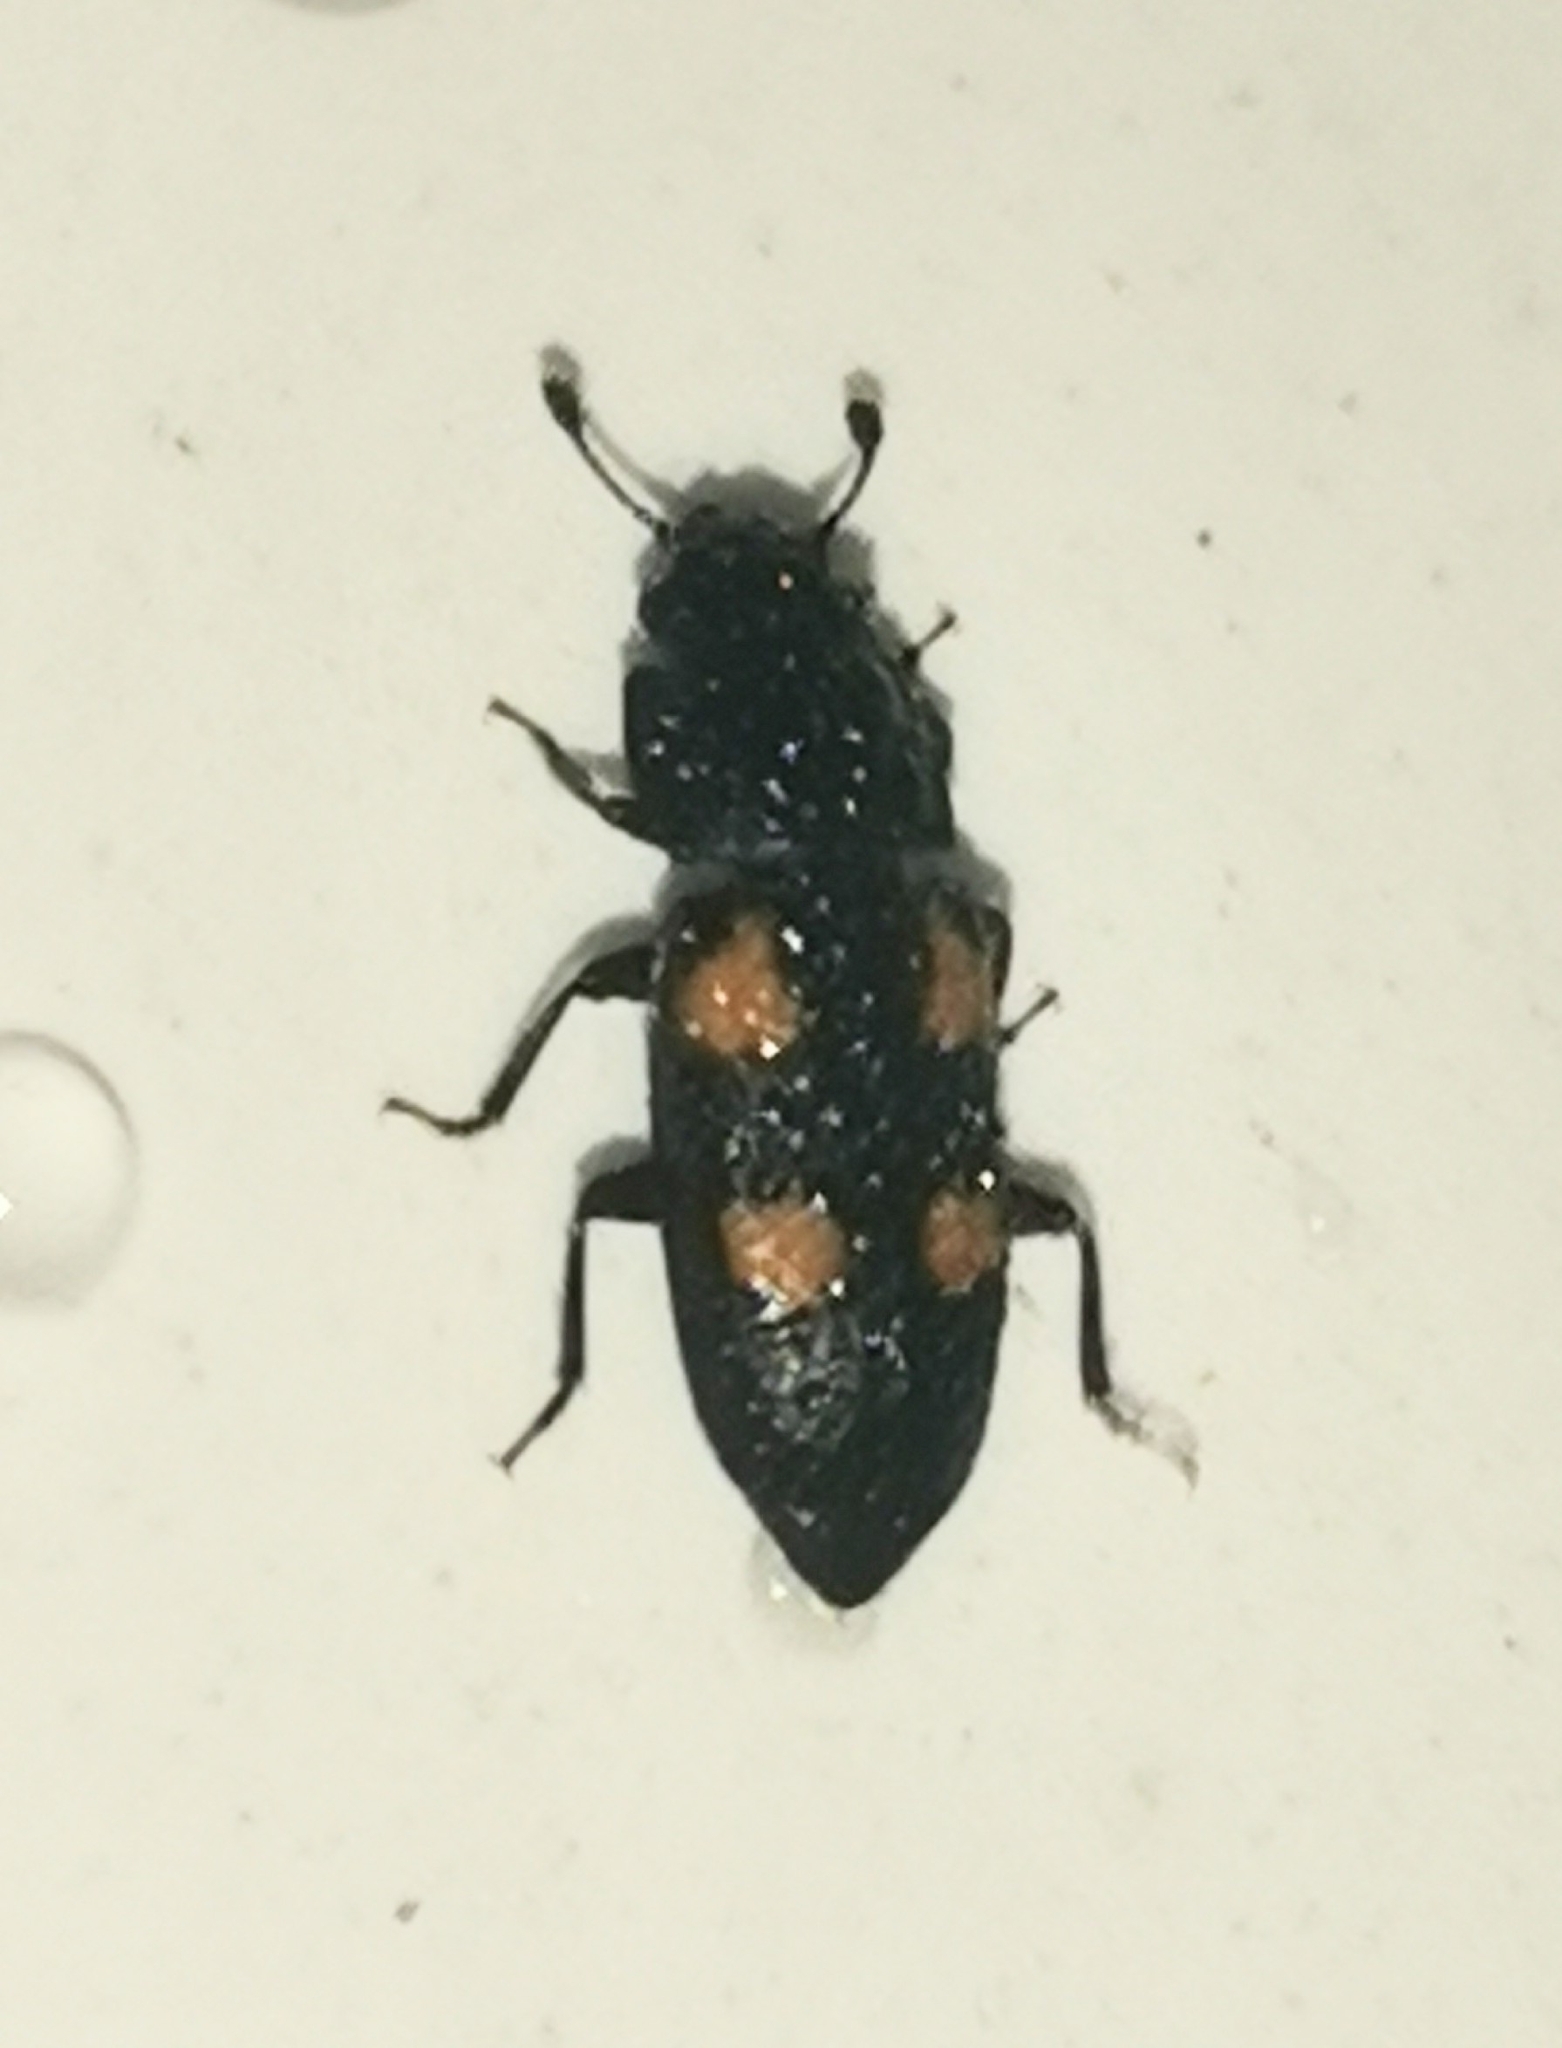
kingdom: Animalia
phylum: Arthropoda
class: Insecta
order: Coleoptera
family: Nitidulidae
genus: Glischrochilus
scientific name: Glischrochilus quadripunctatus
